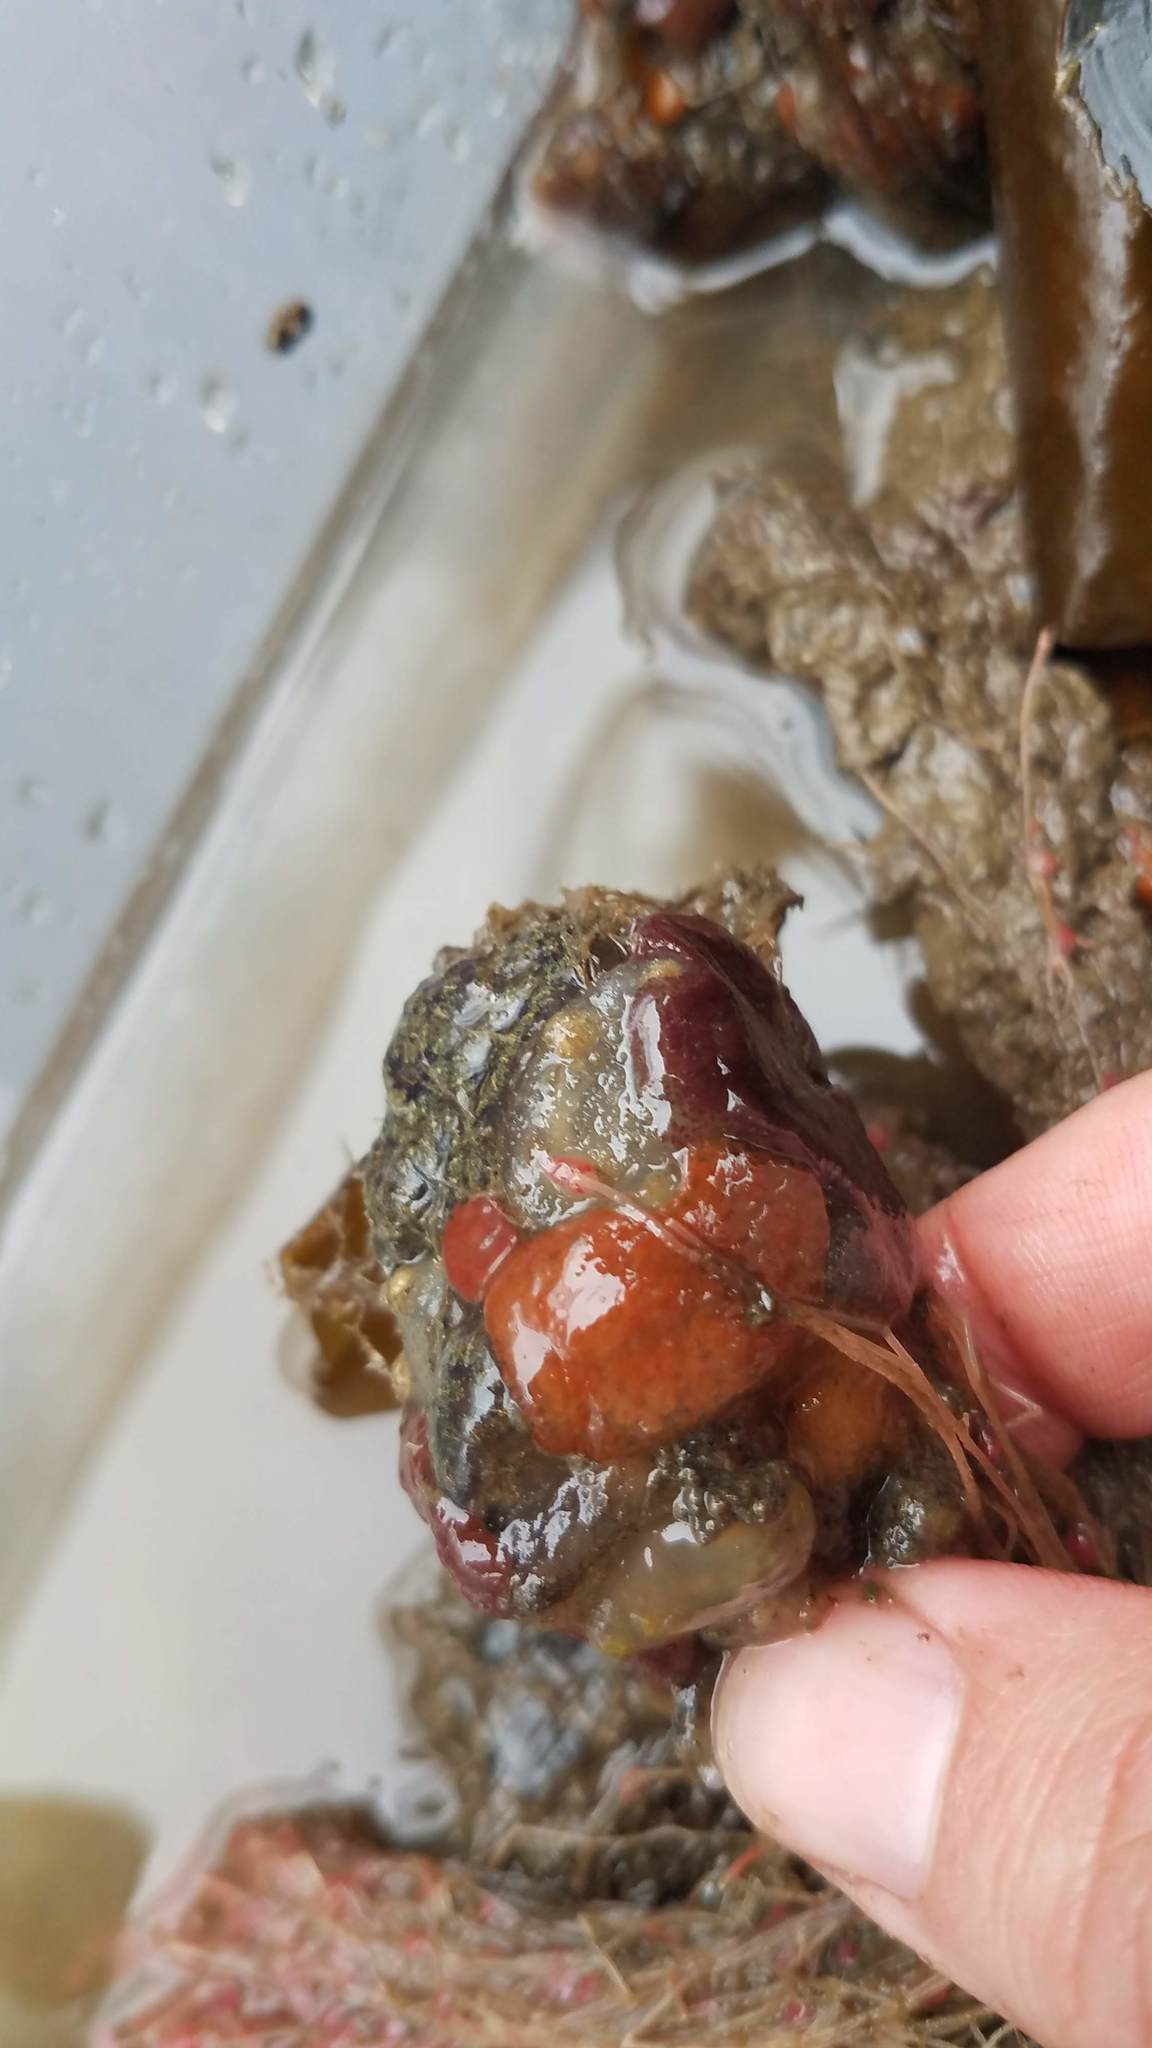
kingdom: Animalia
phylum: Chordata
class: Ascidiacea
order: Stolidobranchia
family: Styelidae
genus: Botrylloides
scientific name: Botrylloides violaceus
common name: Colonial sea squirt
